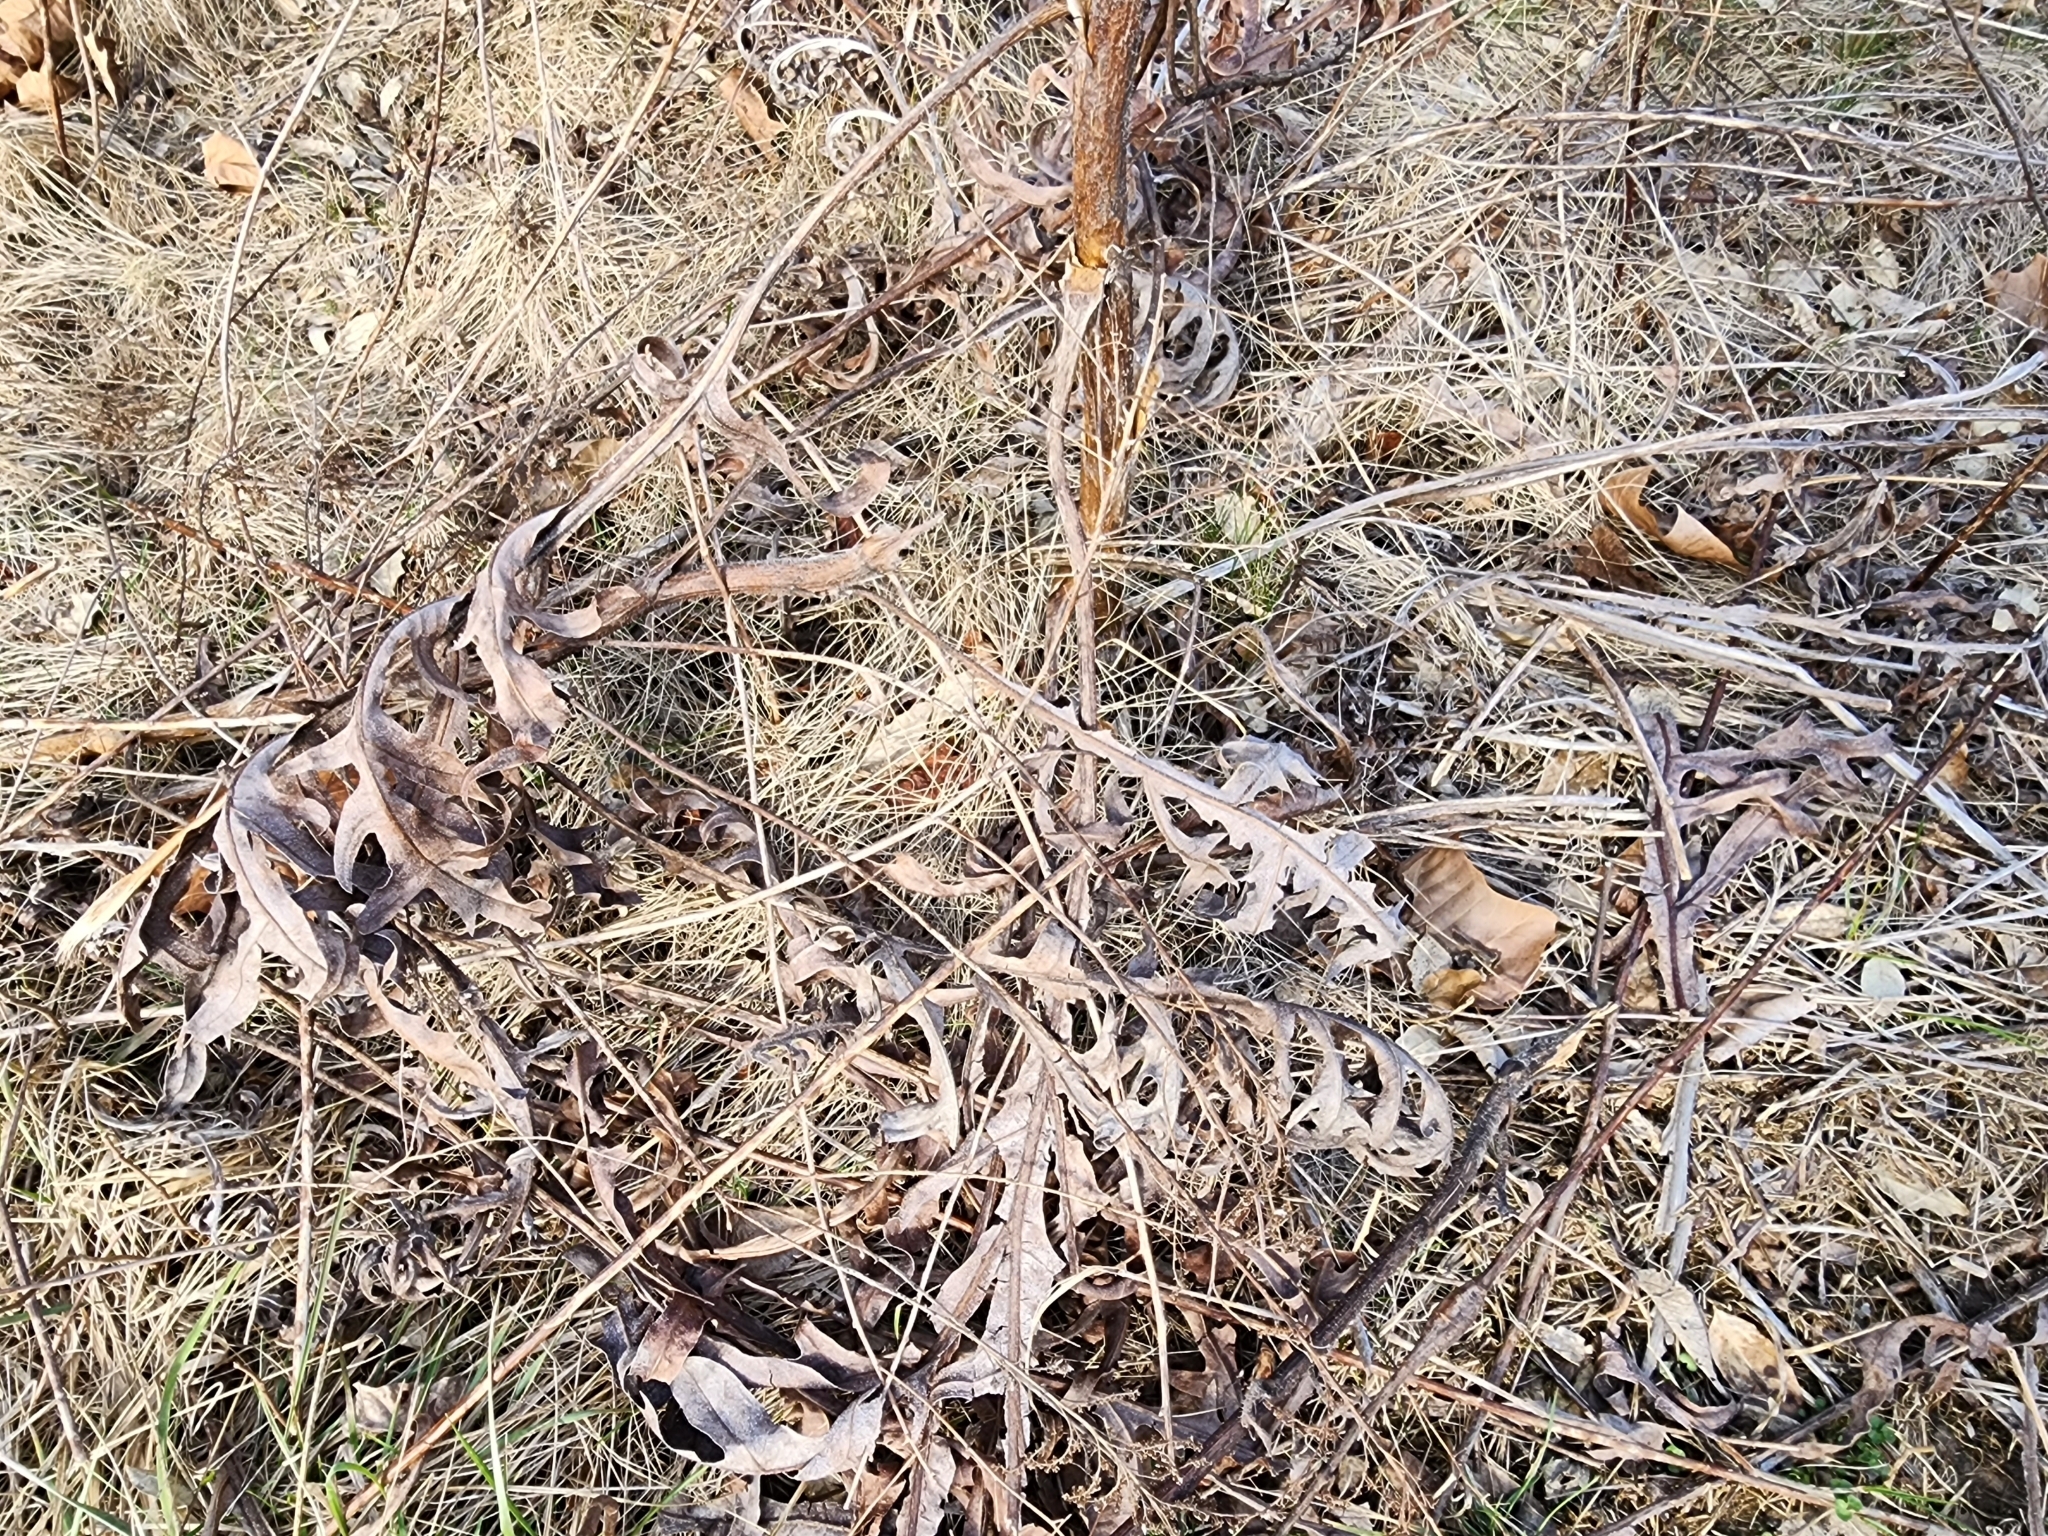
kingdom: Plantae
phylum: Tracheophyta
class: Magnoliopsida
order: Asterales
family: Asteraceae
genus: Silphium
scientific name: Silphium laciniatum
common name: Polarplant
